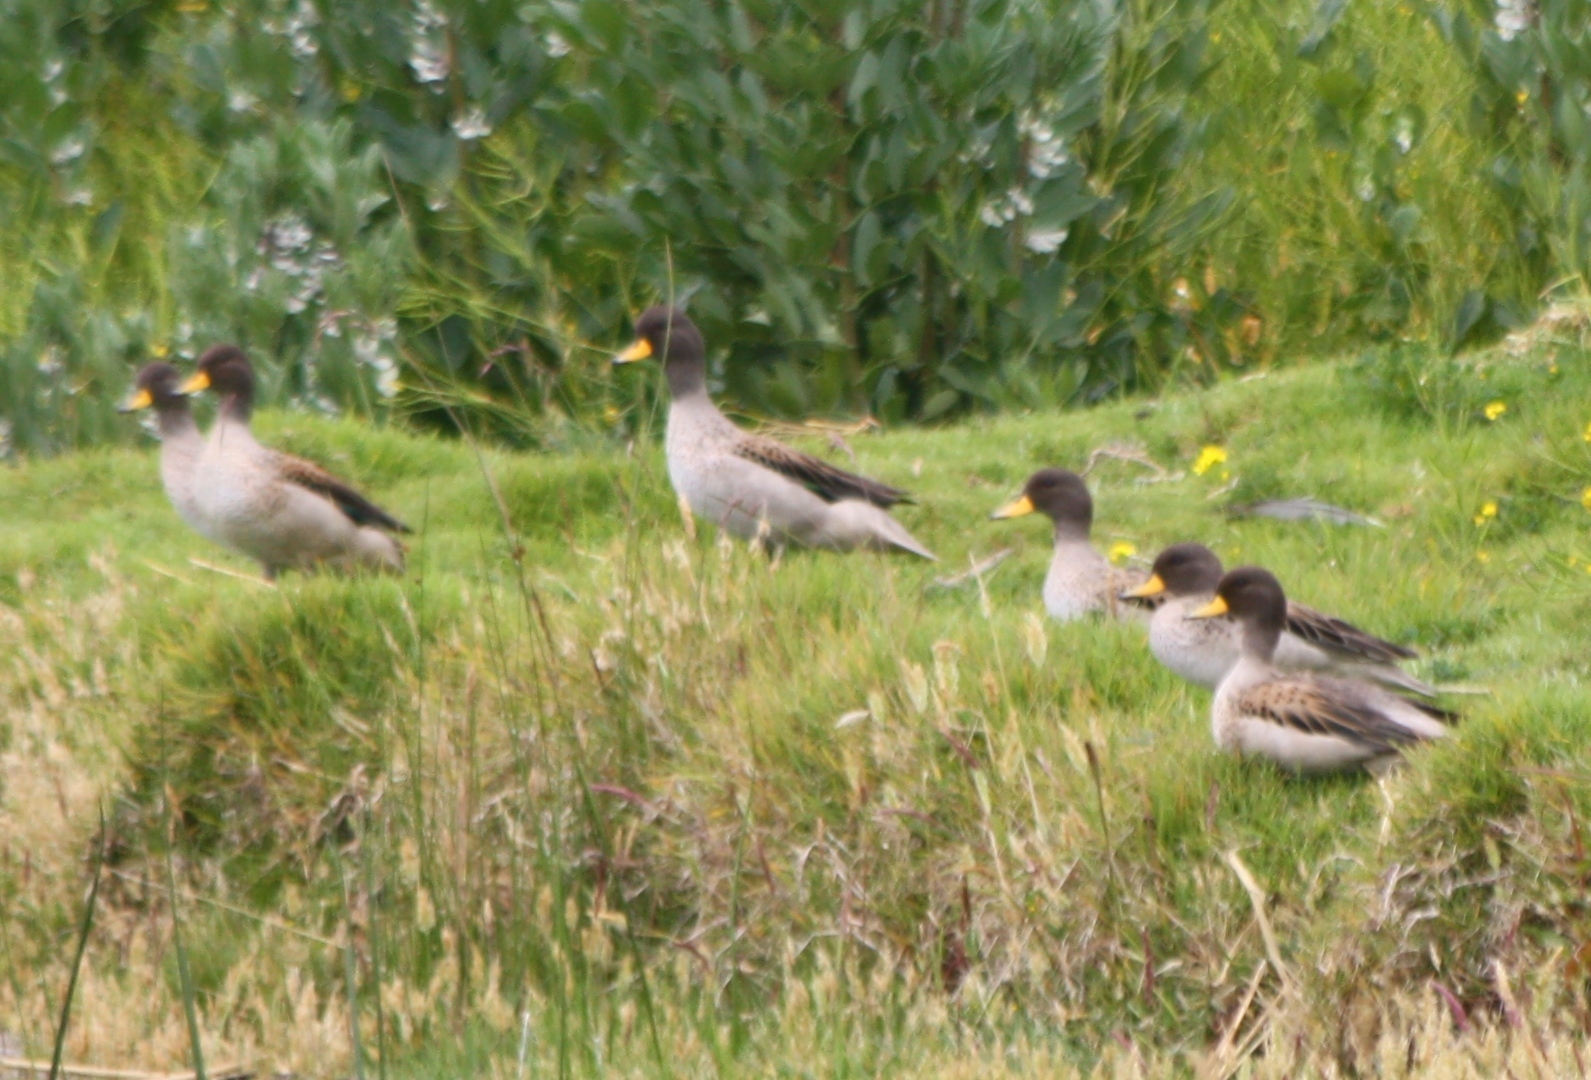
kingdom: Animalia
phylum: Chordata
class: Aves
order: Anseriformes
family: Anatidae
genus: Anas
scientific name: Anas flavirostris
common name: Yellow-billed teal
